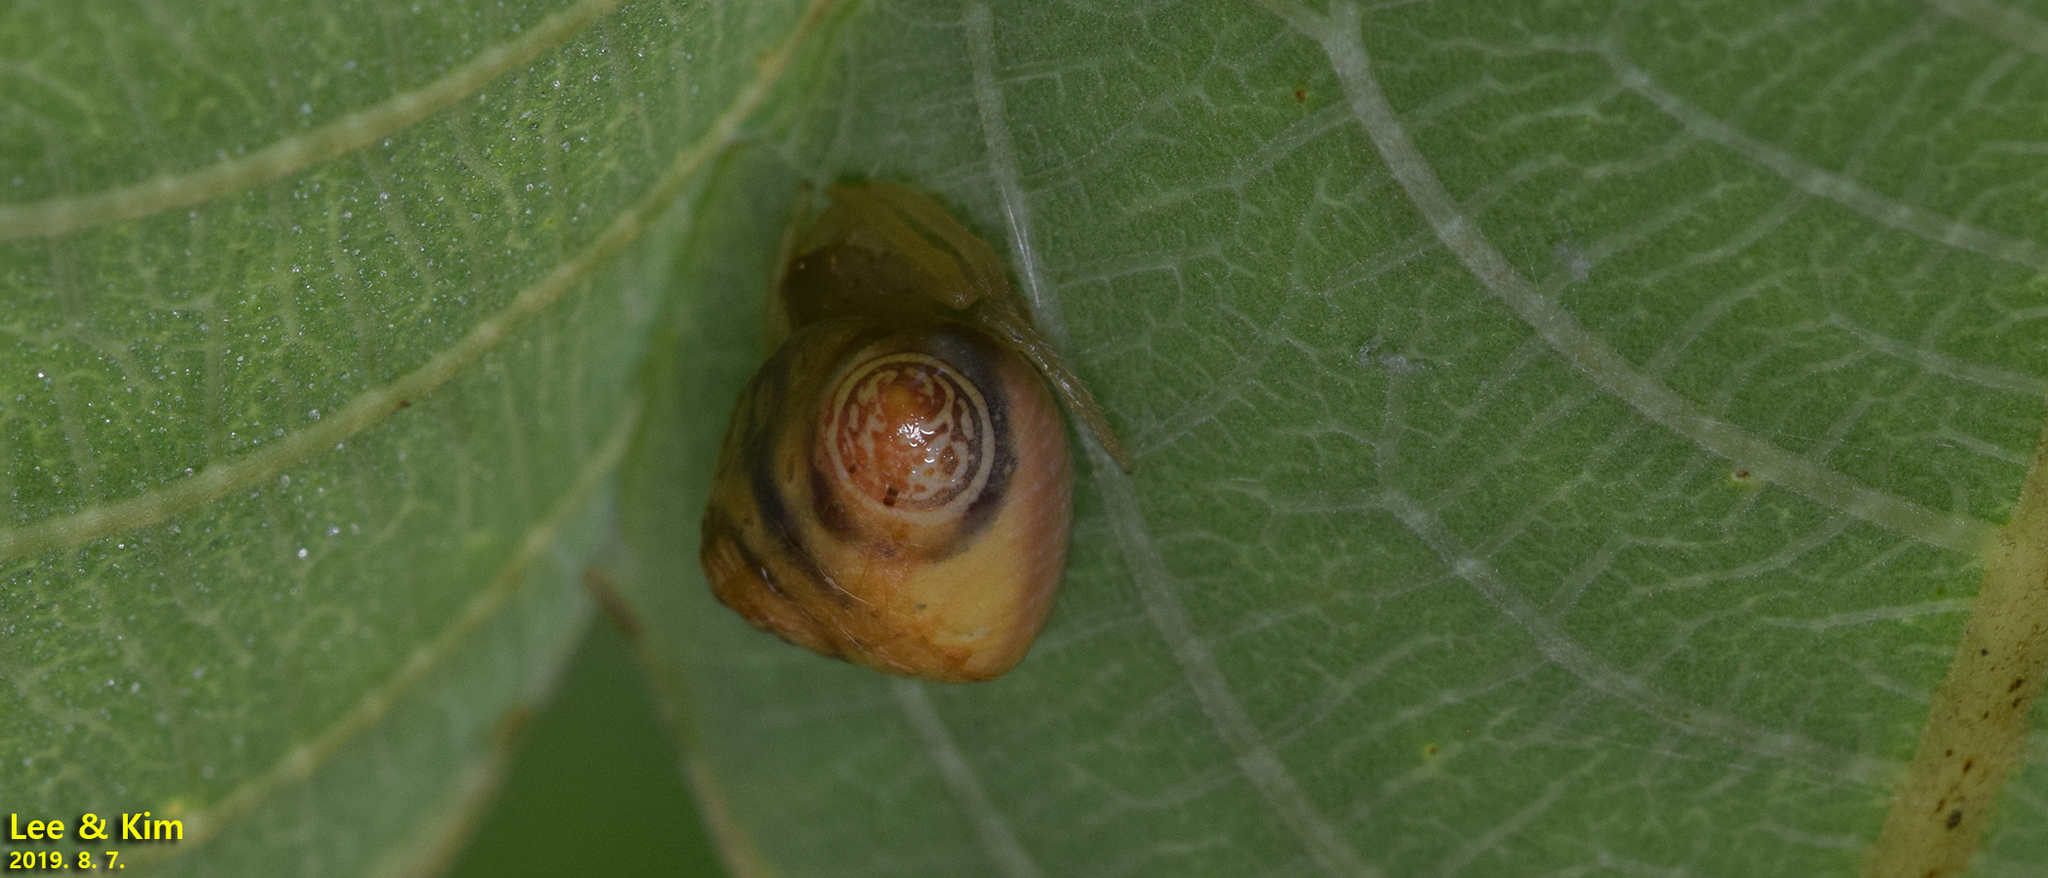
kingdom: Animalia
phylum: Arthropoda
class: Arachnida
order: Araneae
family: Araneidae
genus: Cyrtarachne
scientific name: Cyrtarachne inaequalis
